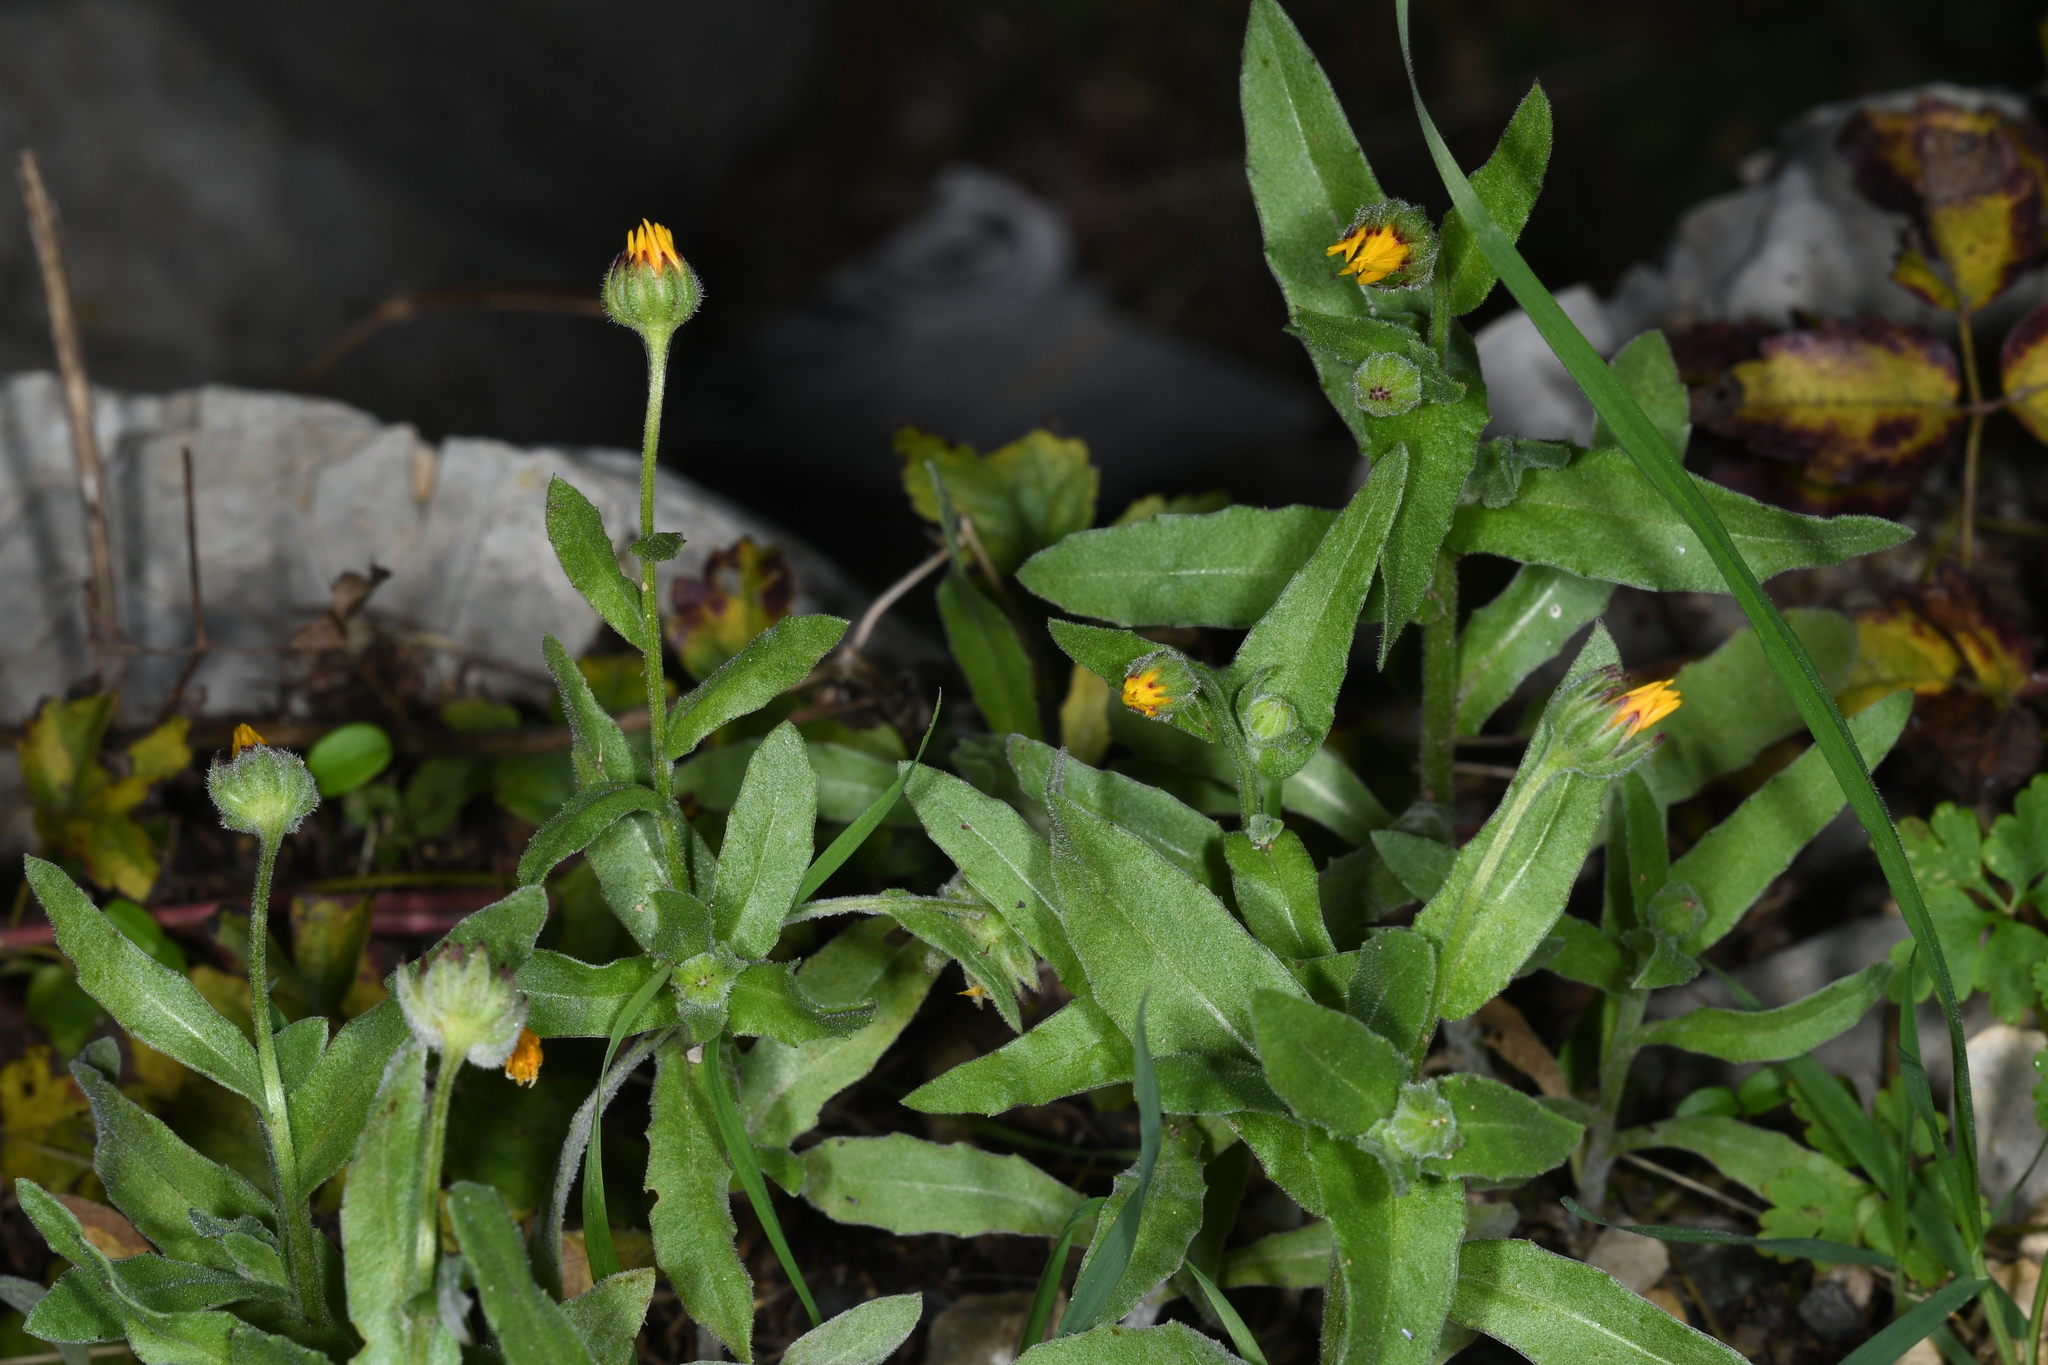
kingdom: Plantae
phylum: Tracheophyta
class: Magnoliopsida
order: Asterales
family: Asteraceae
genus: Calendula
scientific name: Calendula arvensis
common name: Field marigold
